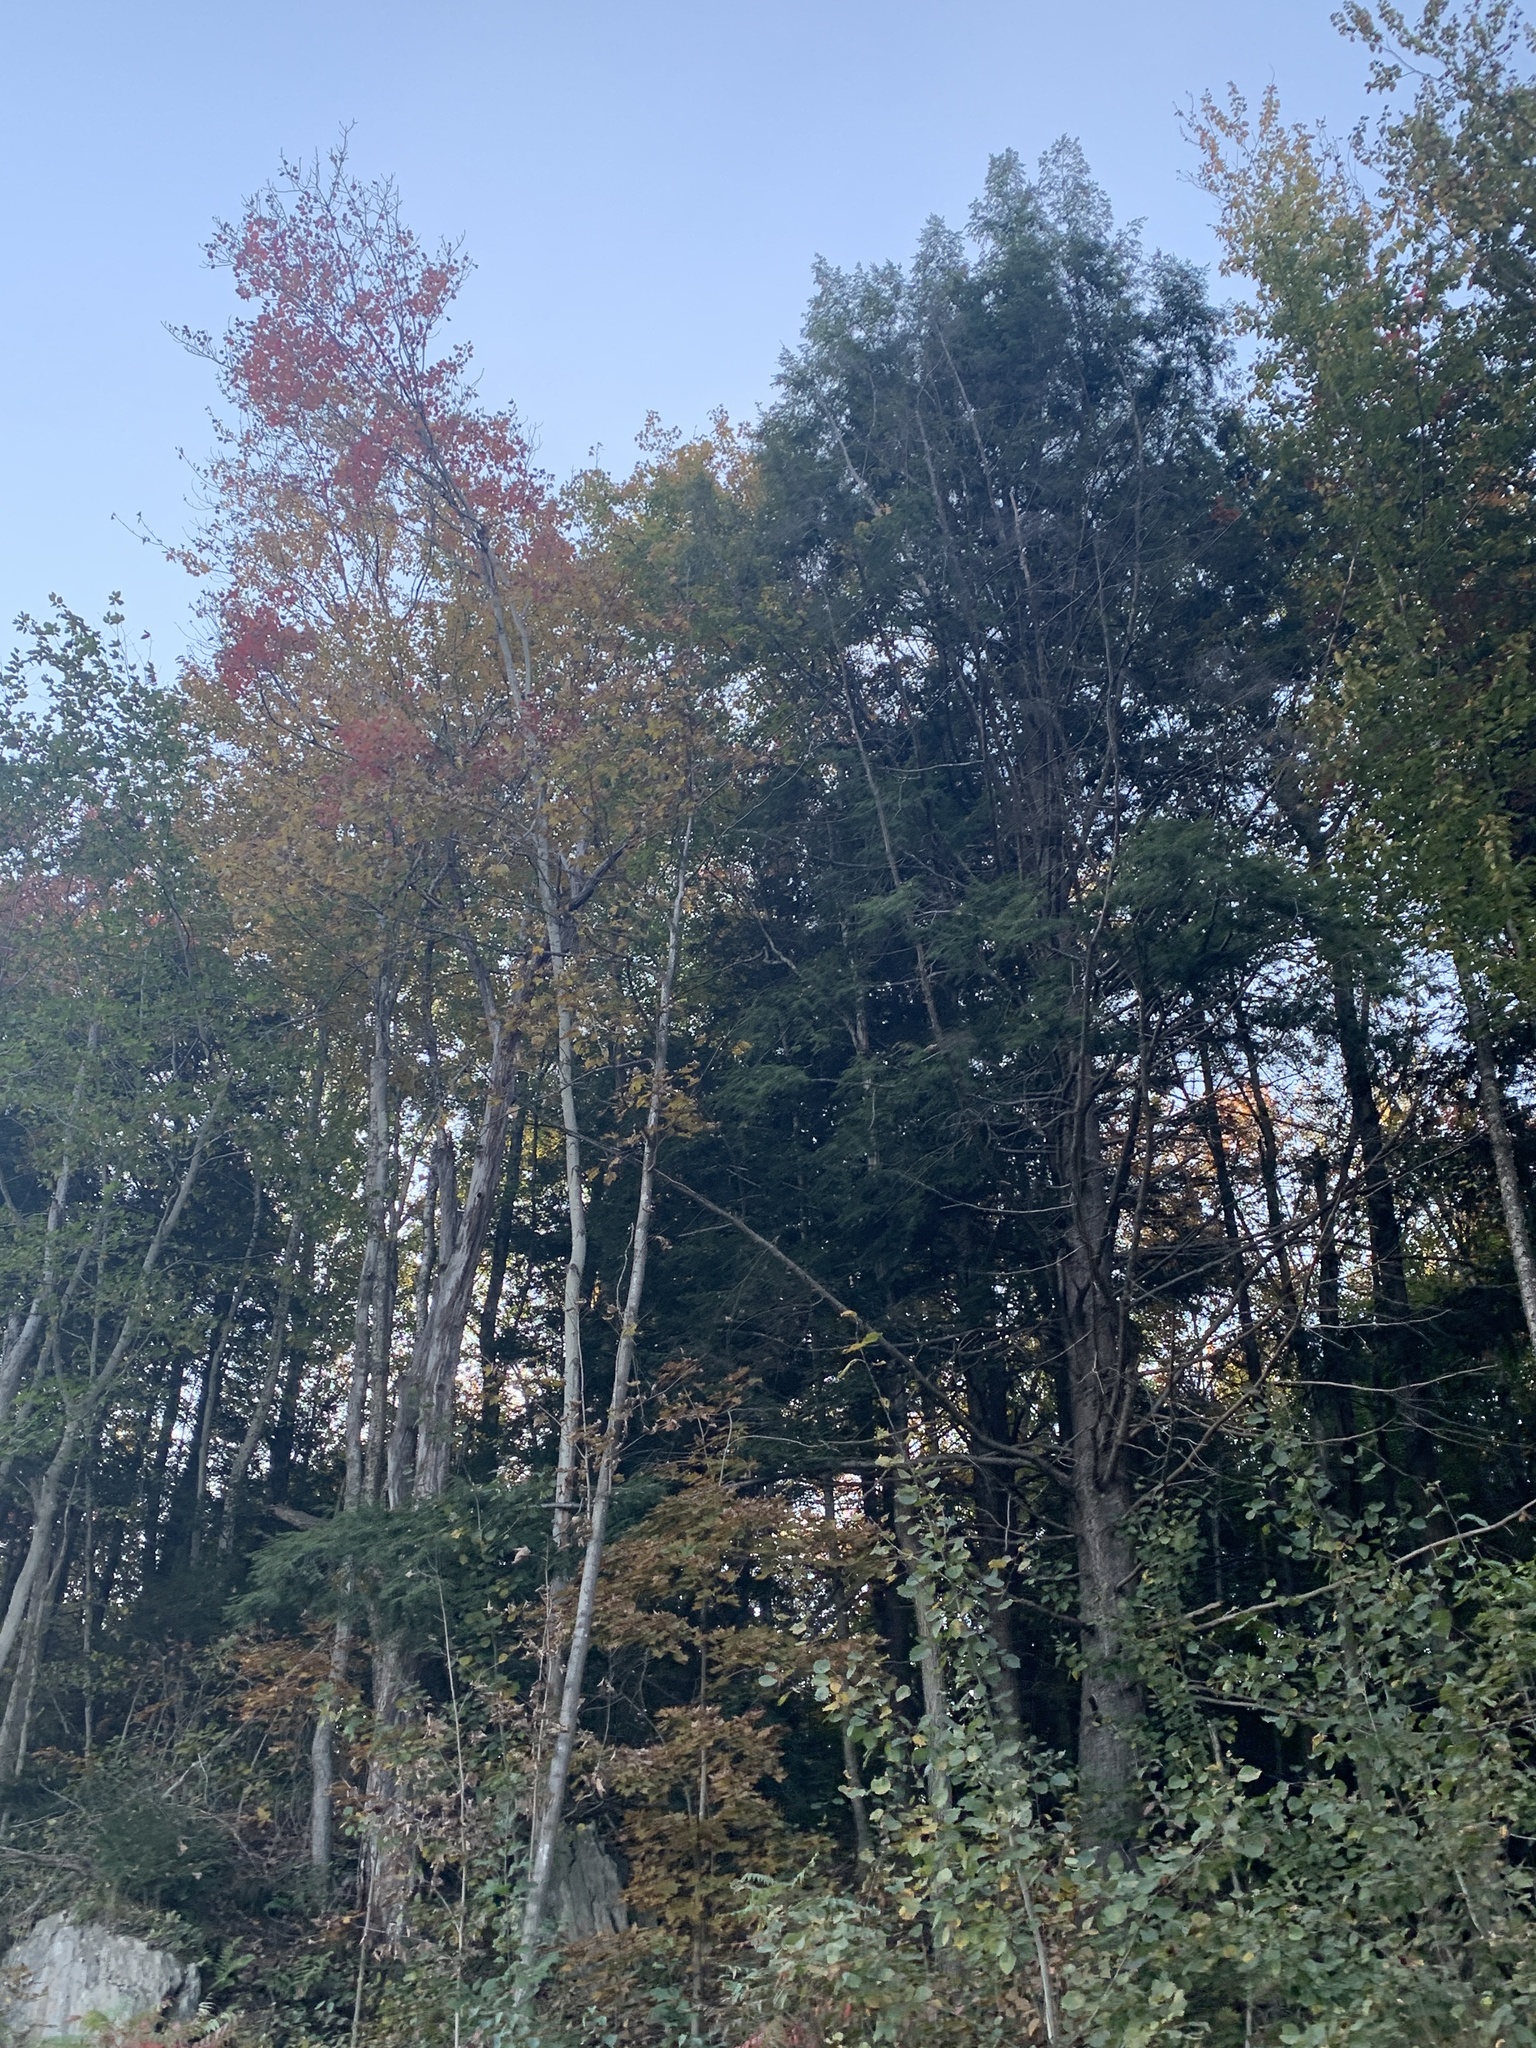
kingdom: Plantae
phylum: Tracheophyta
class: Pinopsida
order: Pinales
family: Pinaceae
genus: Tsuga
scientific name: Tsuga canadensis
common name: Eastern hemlock
